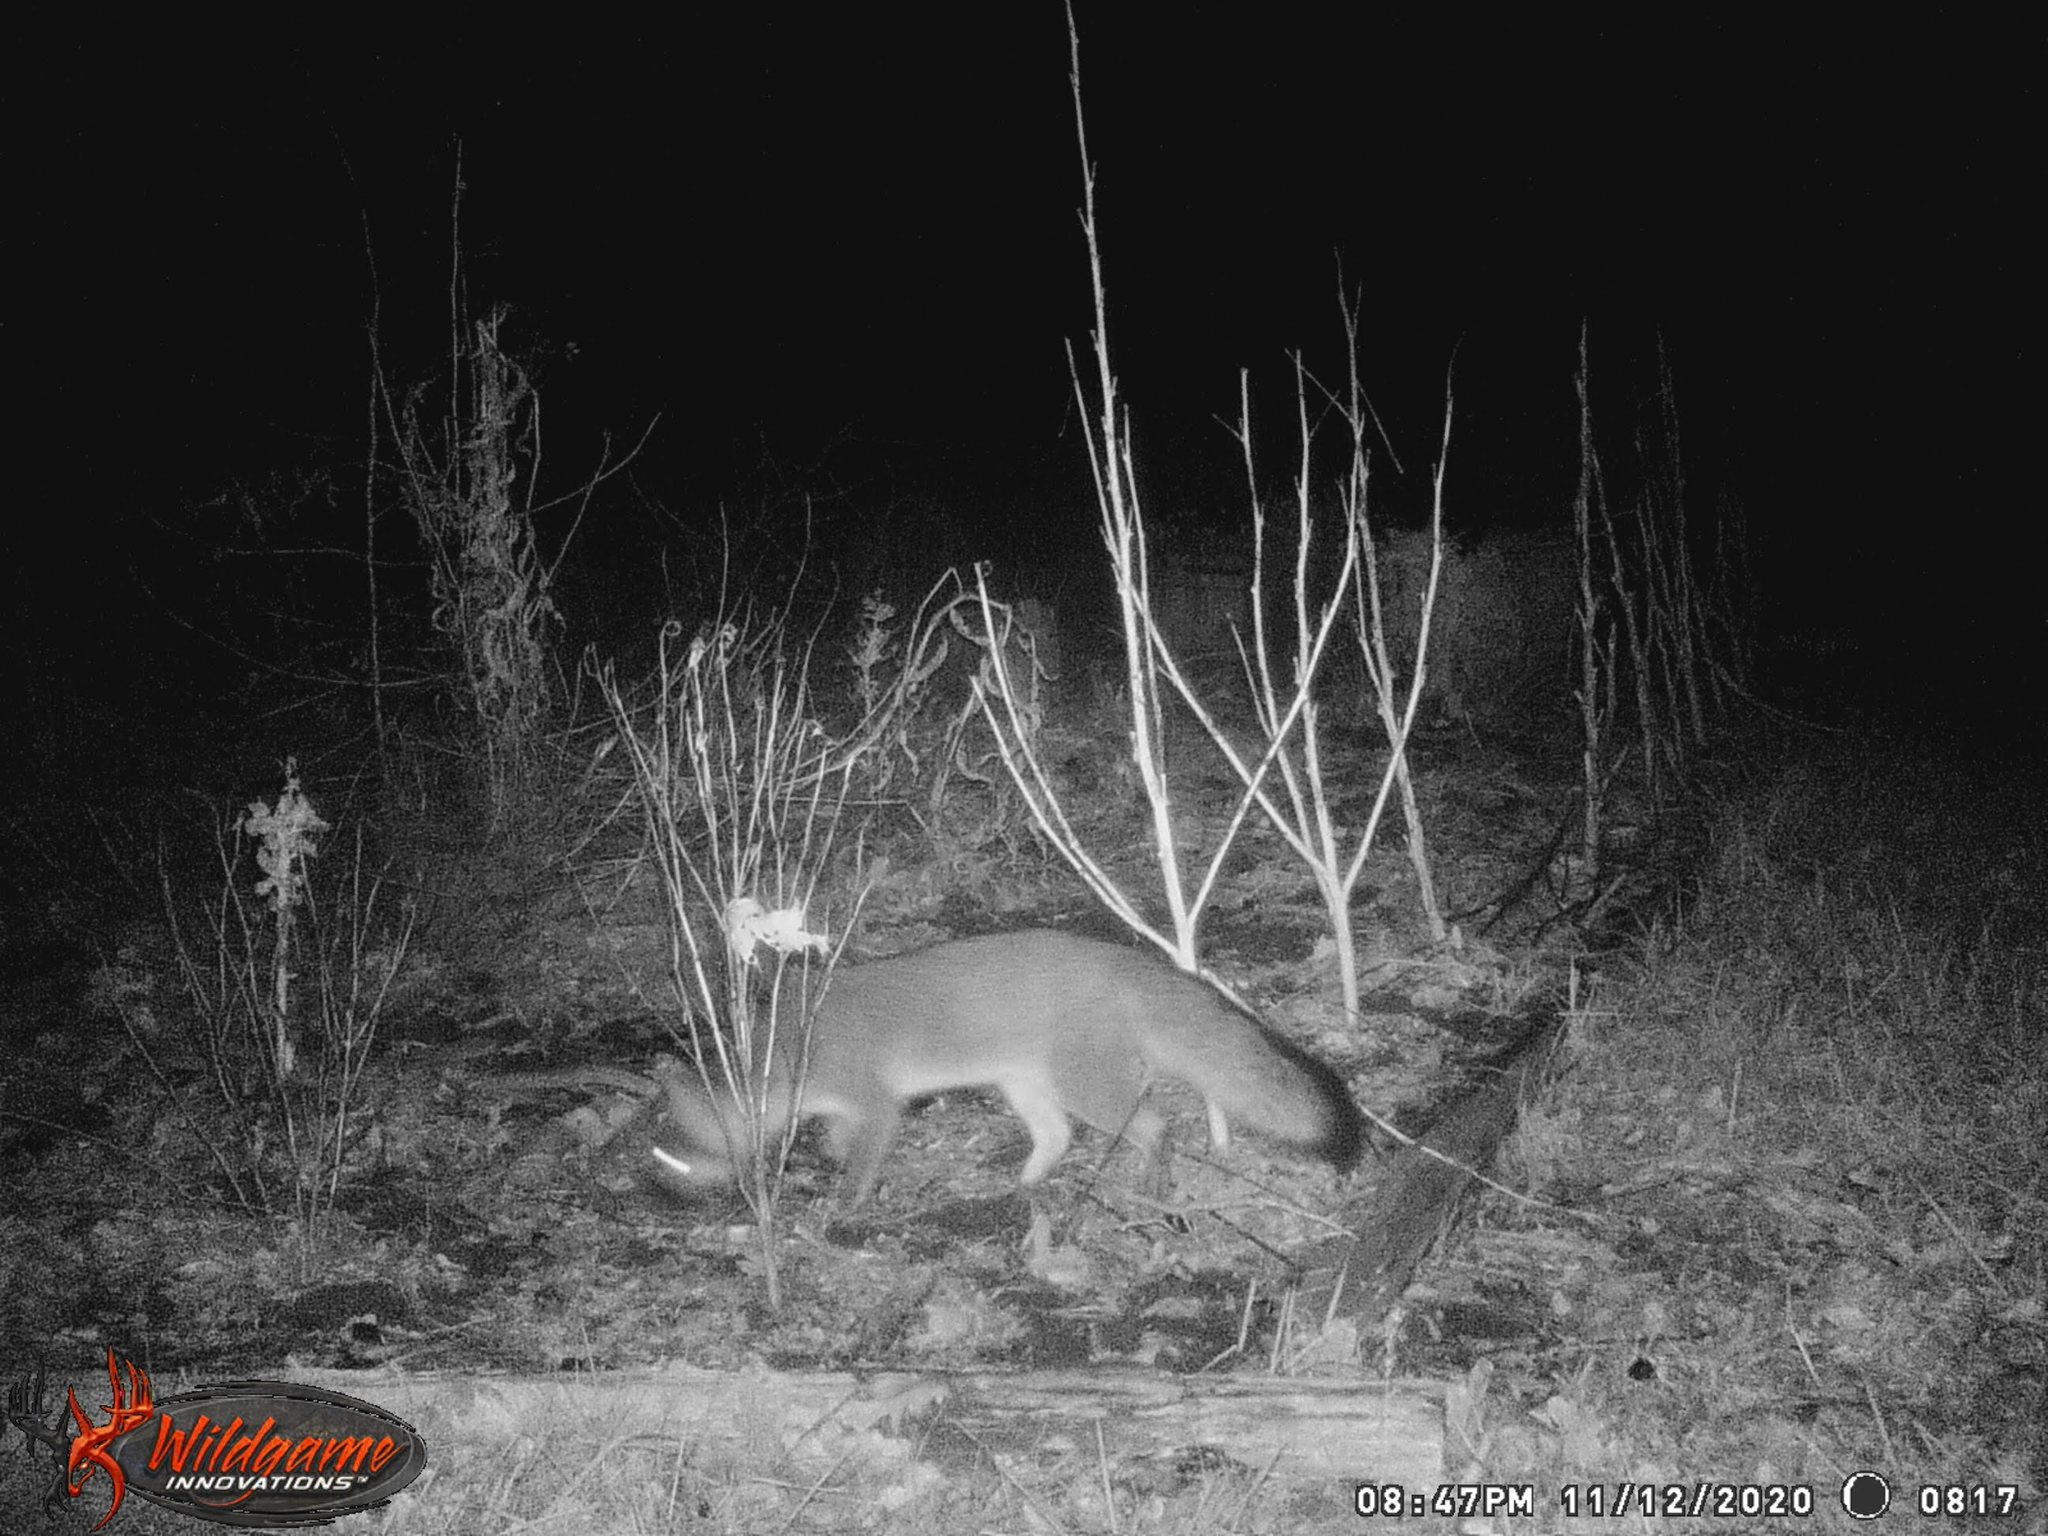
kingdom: Animalia
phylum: Chordata
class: Mammalia
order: Carnivora
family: Canidae
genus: Urocyon
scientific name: Urocyon cinereoargenteus
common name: Gray fox
